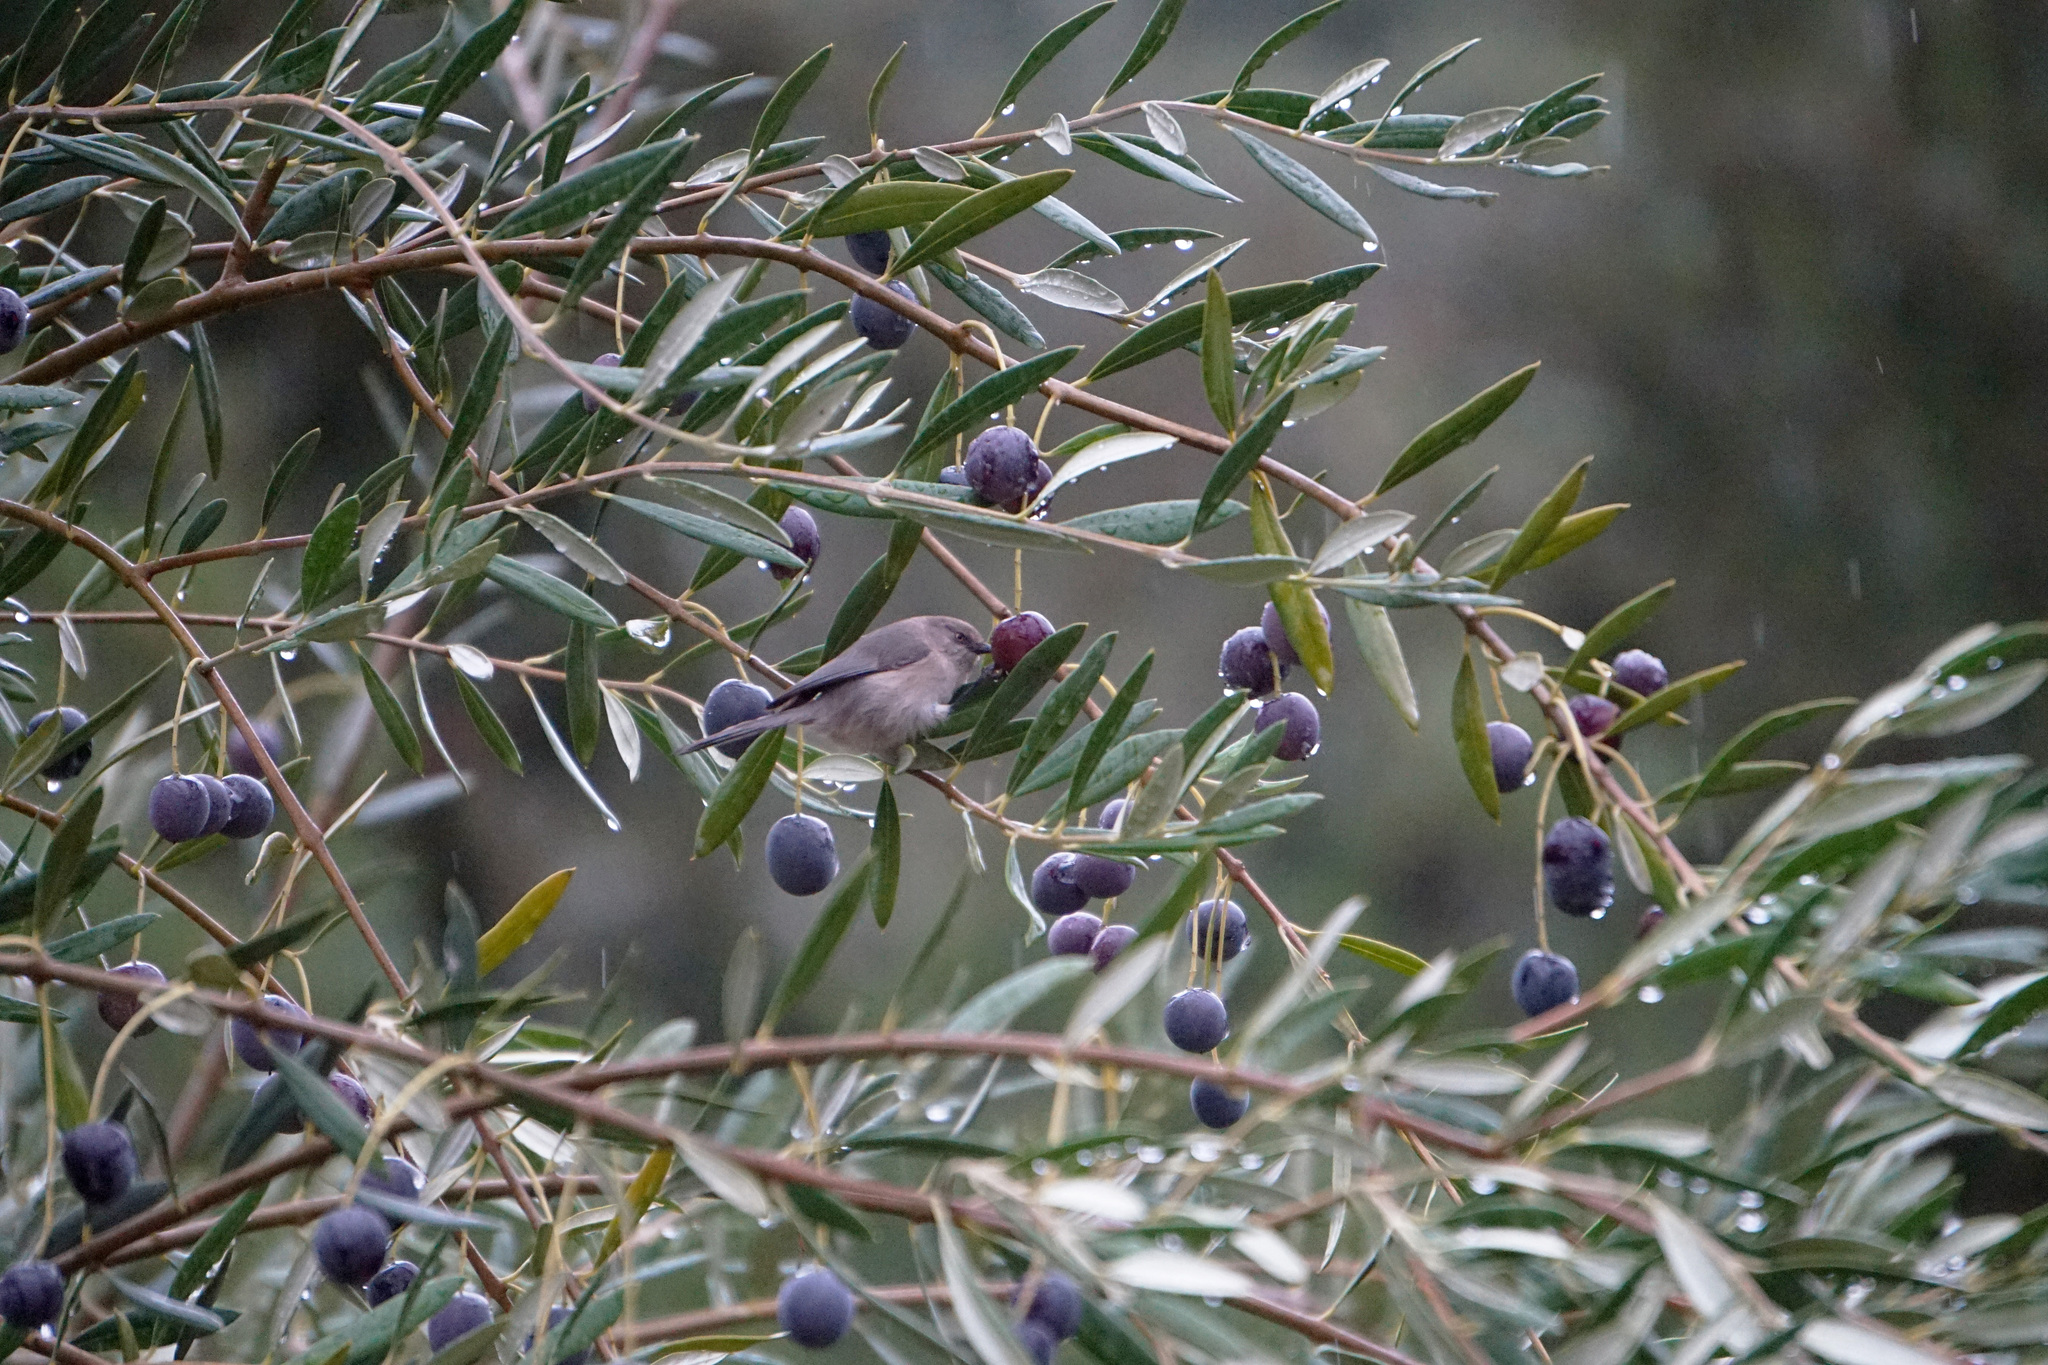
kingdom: Animalia
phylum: Chordata
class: Aves
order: Passeriformes
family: Aegithalidae
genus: Psaltriparus
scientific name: Psaltriparus minimus
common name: American bushtit
